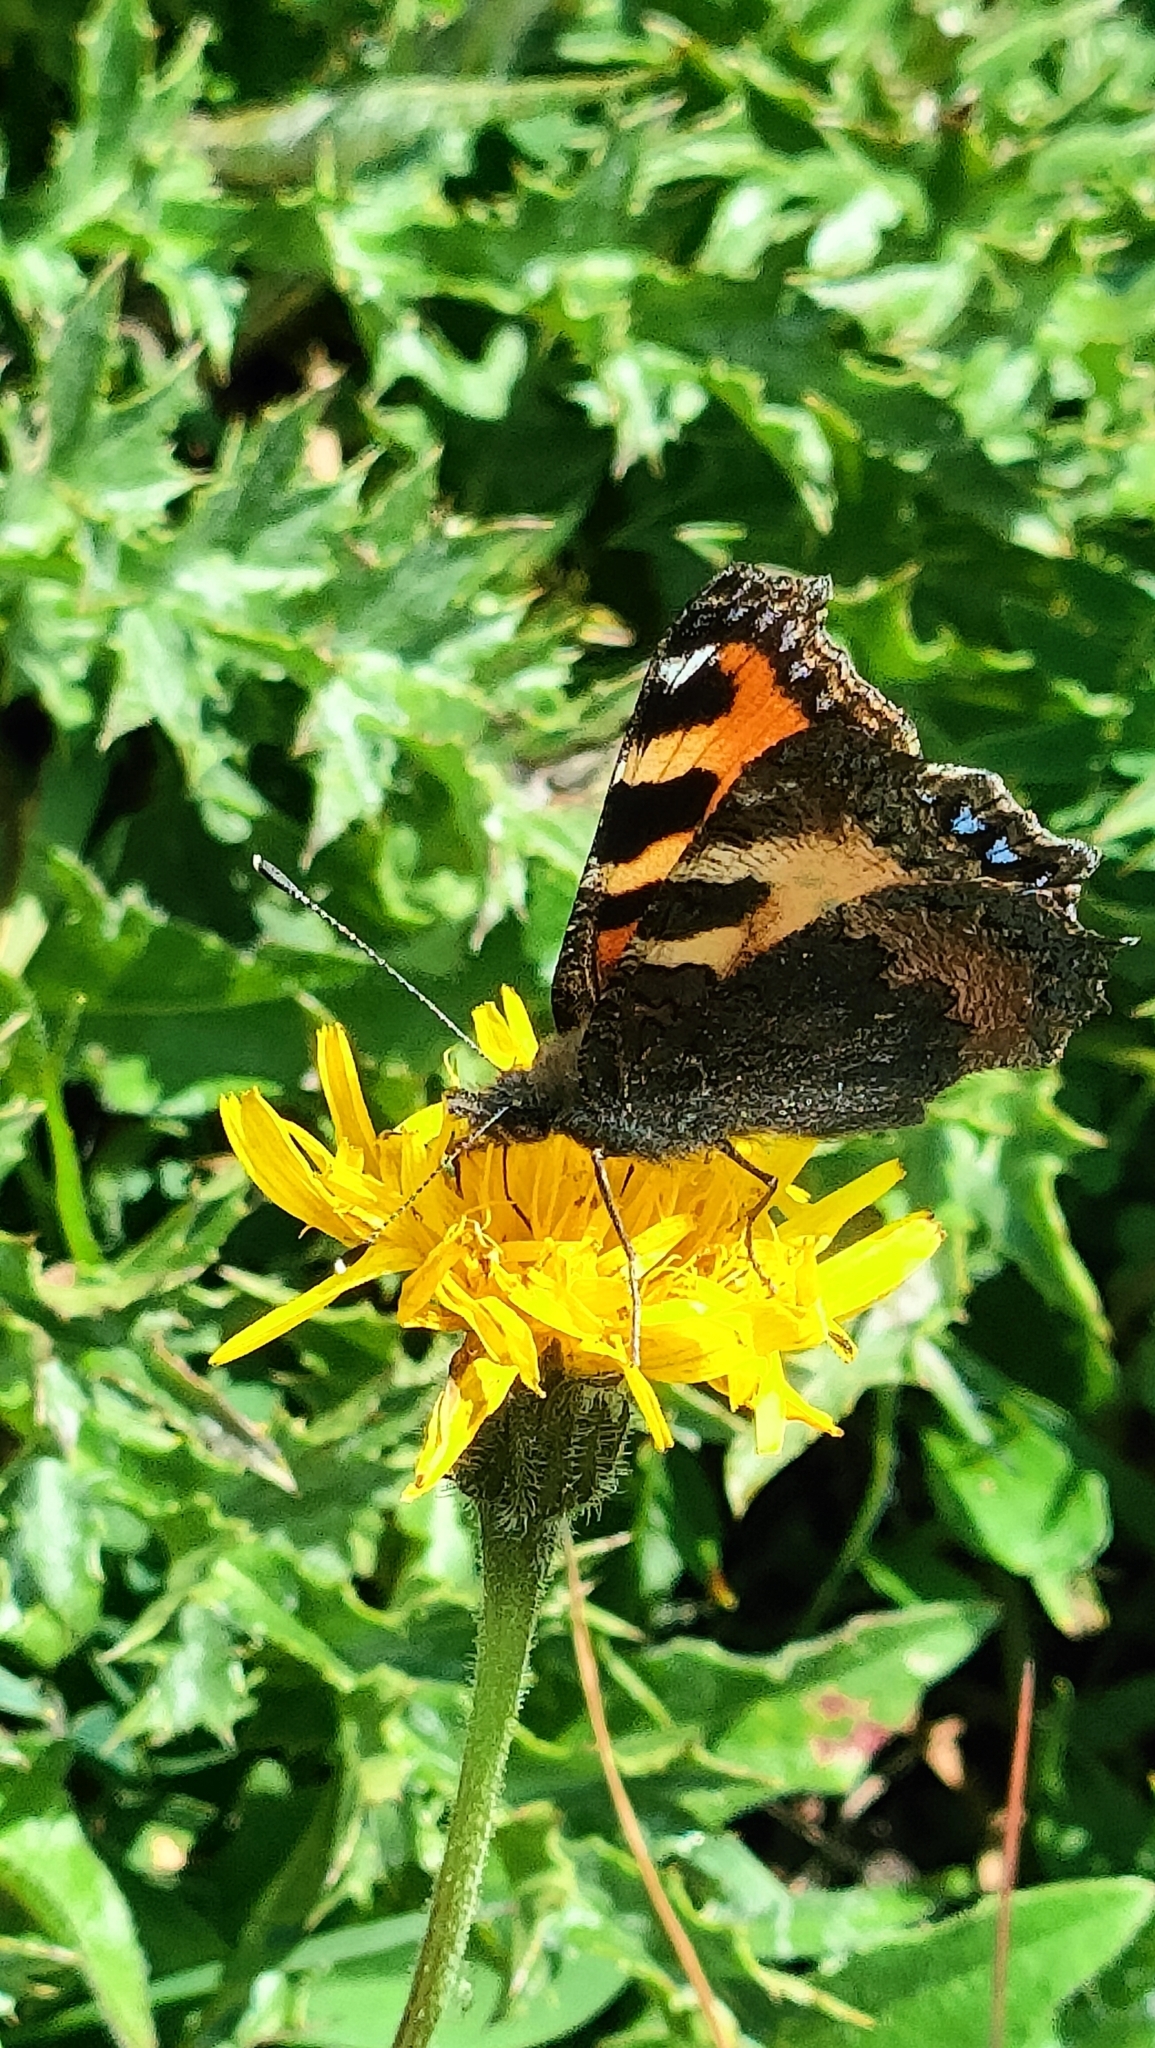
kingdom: Animalia
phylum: Arthropoda
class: Insecta
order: Lepidoptera
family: Nymphalidae
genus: Aglais
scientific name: Aglais urticae
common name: Small tortoiseshell
